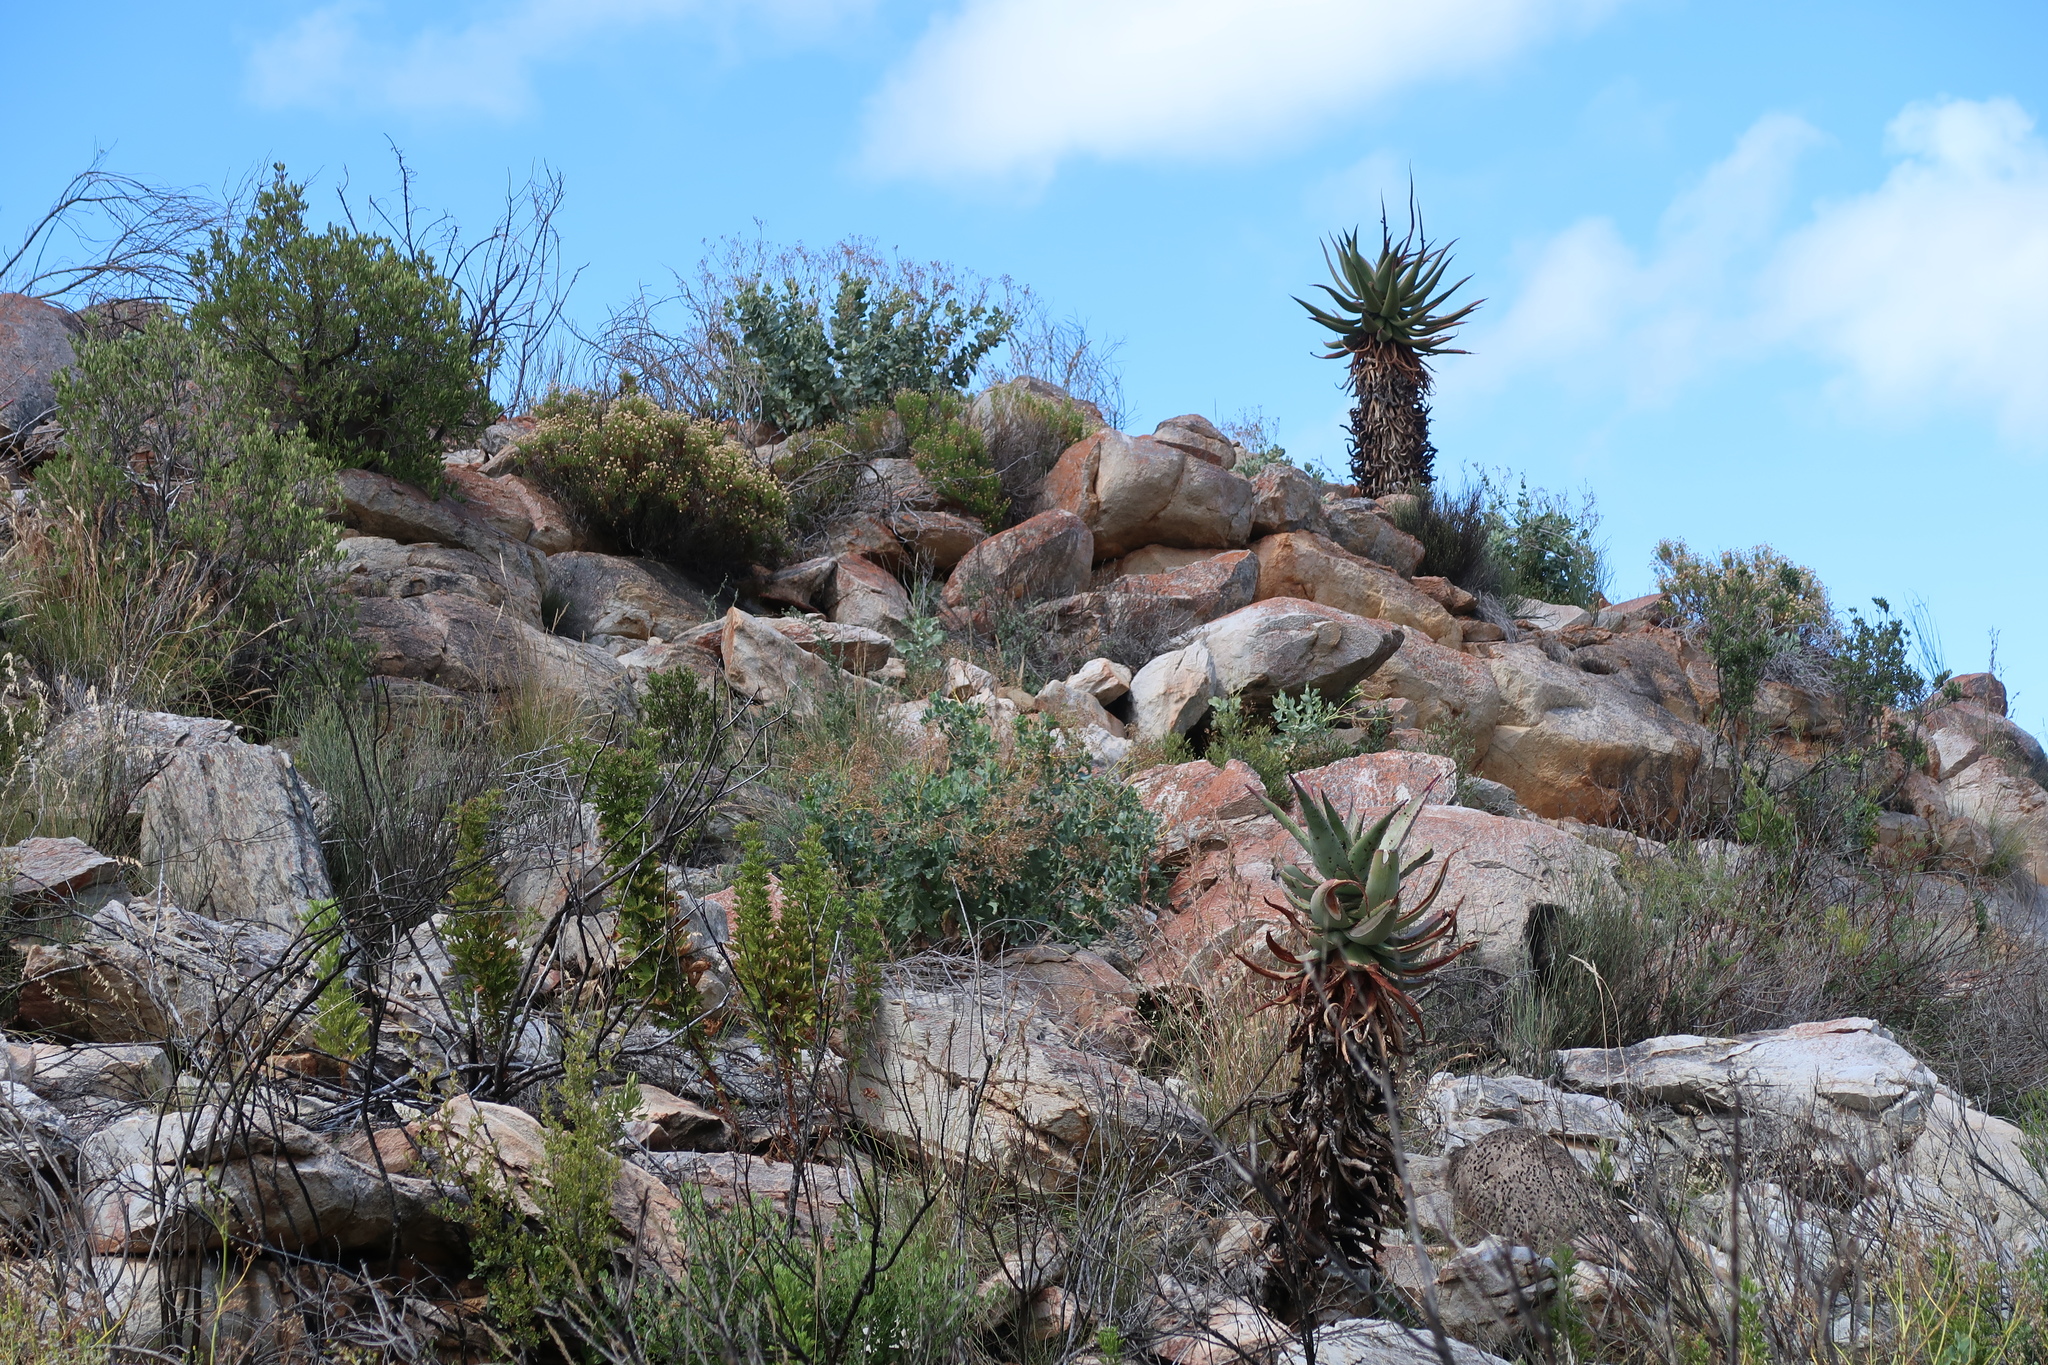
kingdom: Plantae
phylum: Tracheophyta
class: Liliopsida
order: Asparagales
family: Asphodelaceae
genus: Aloe
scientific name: Aloe ferox
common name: Bitter aloe
